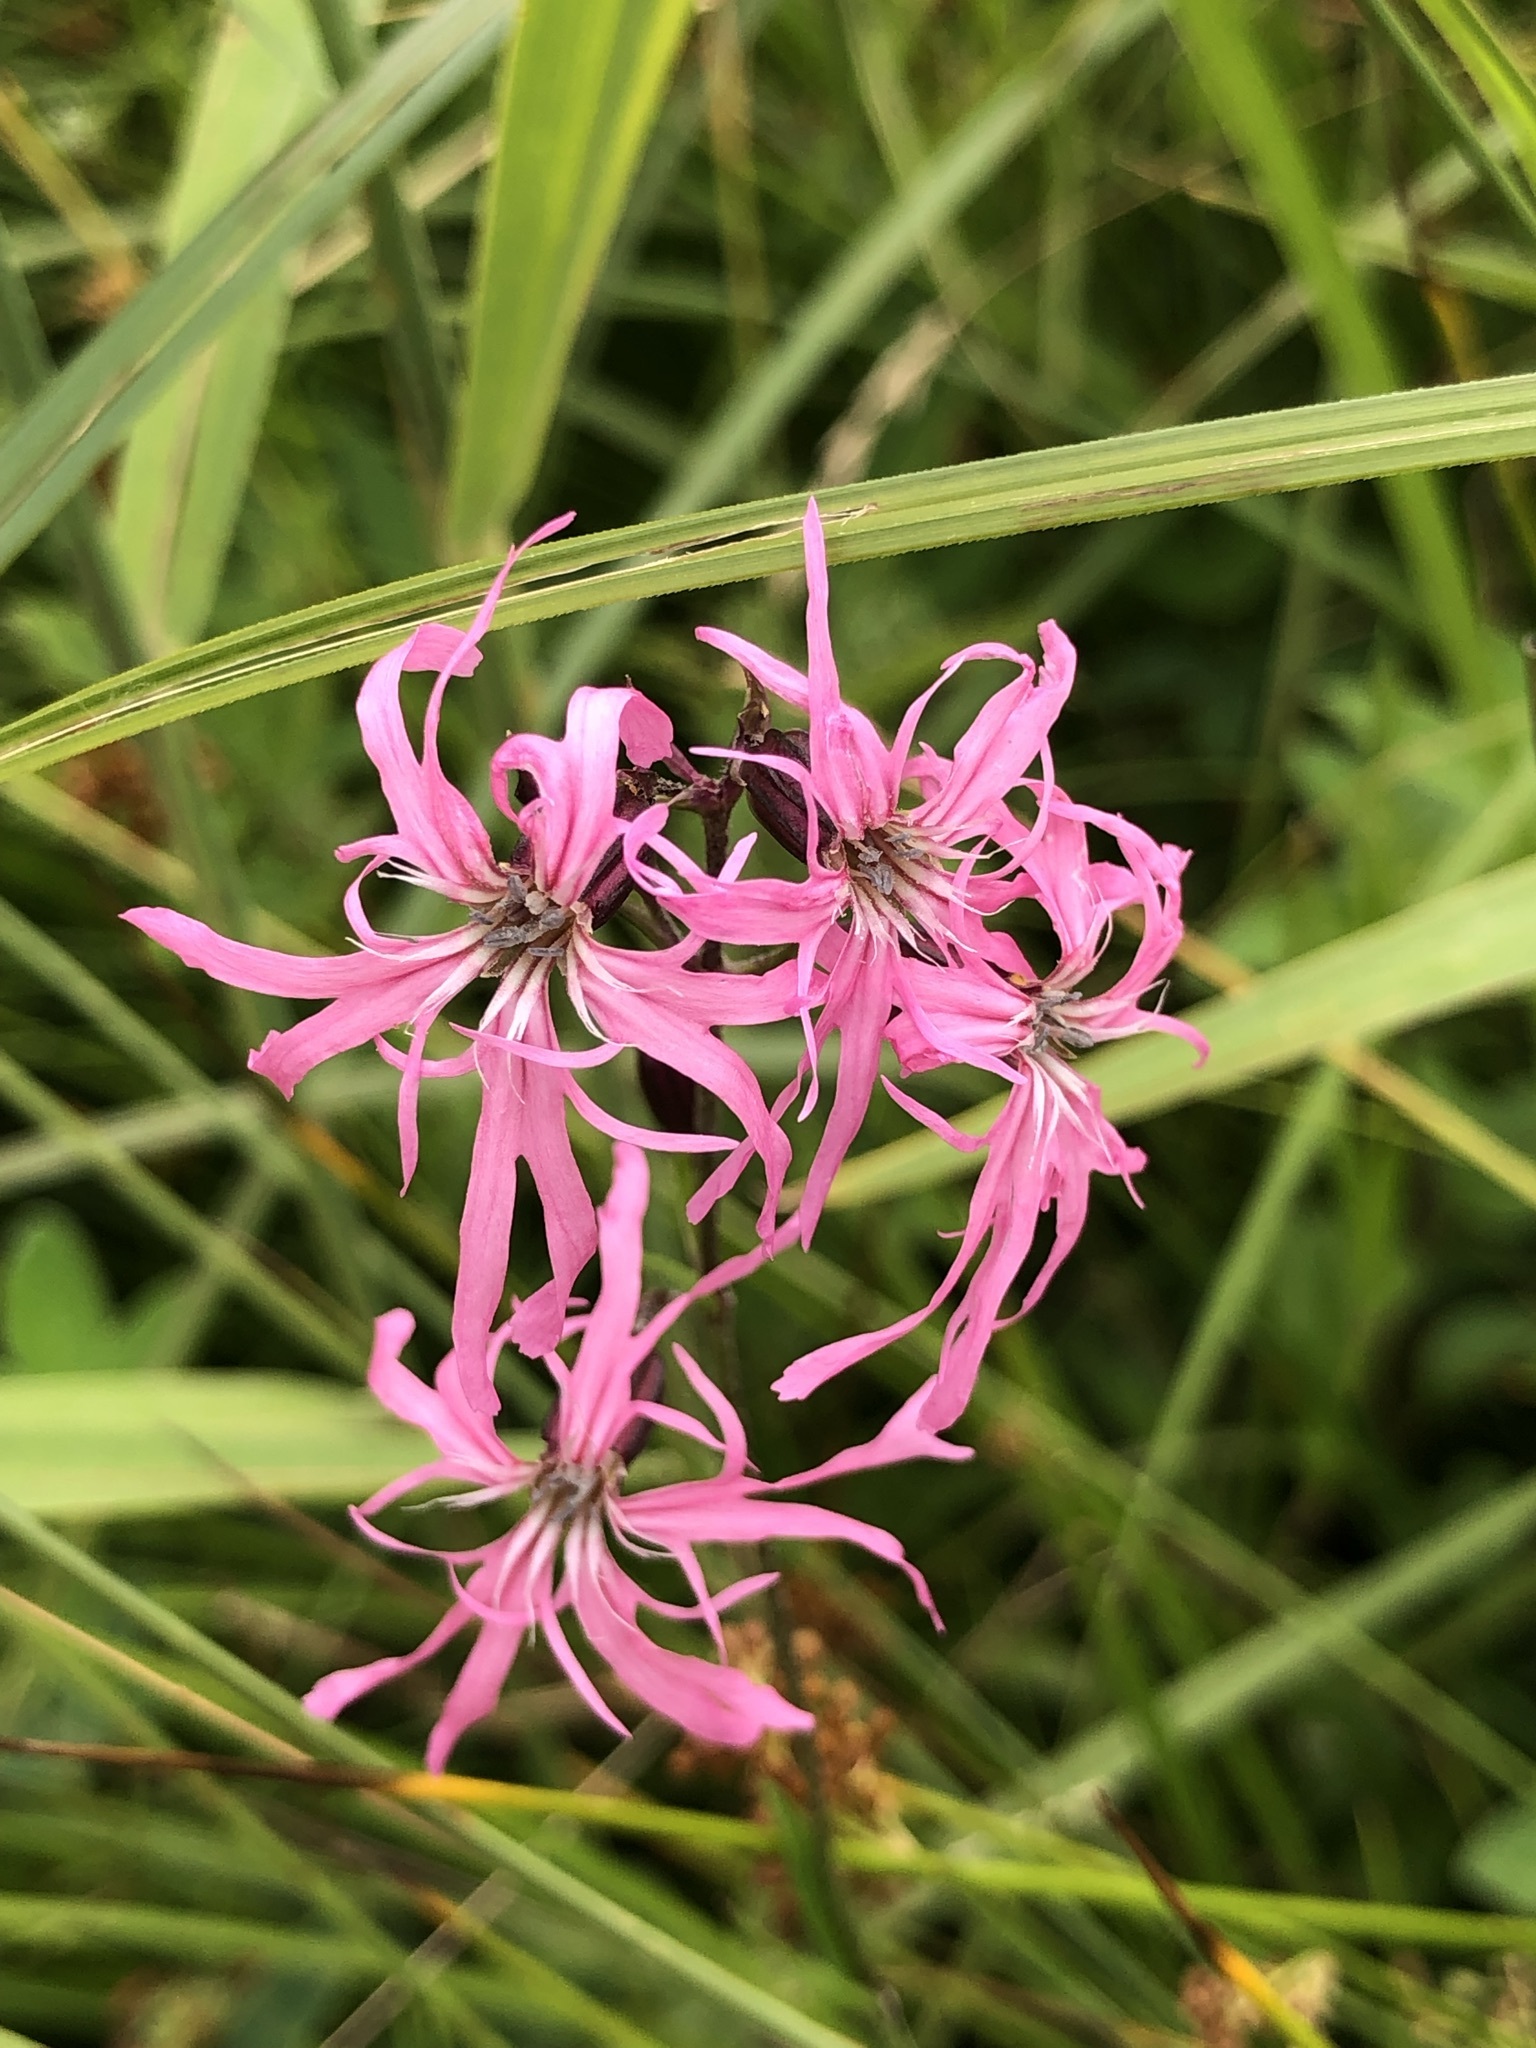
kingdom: Plantae
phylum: Tracheophyta
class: Magnoliopsida
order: Caryophyllales
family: Caryophyllaceae
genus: Silene
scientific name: Silene flos-cuculi
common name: Ragged-robin
